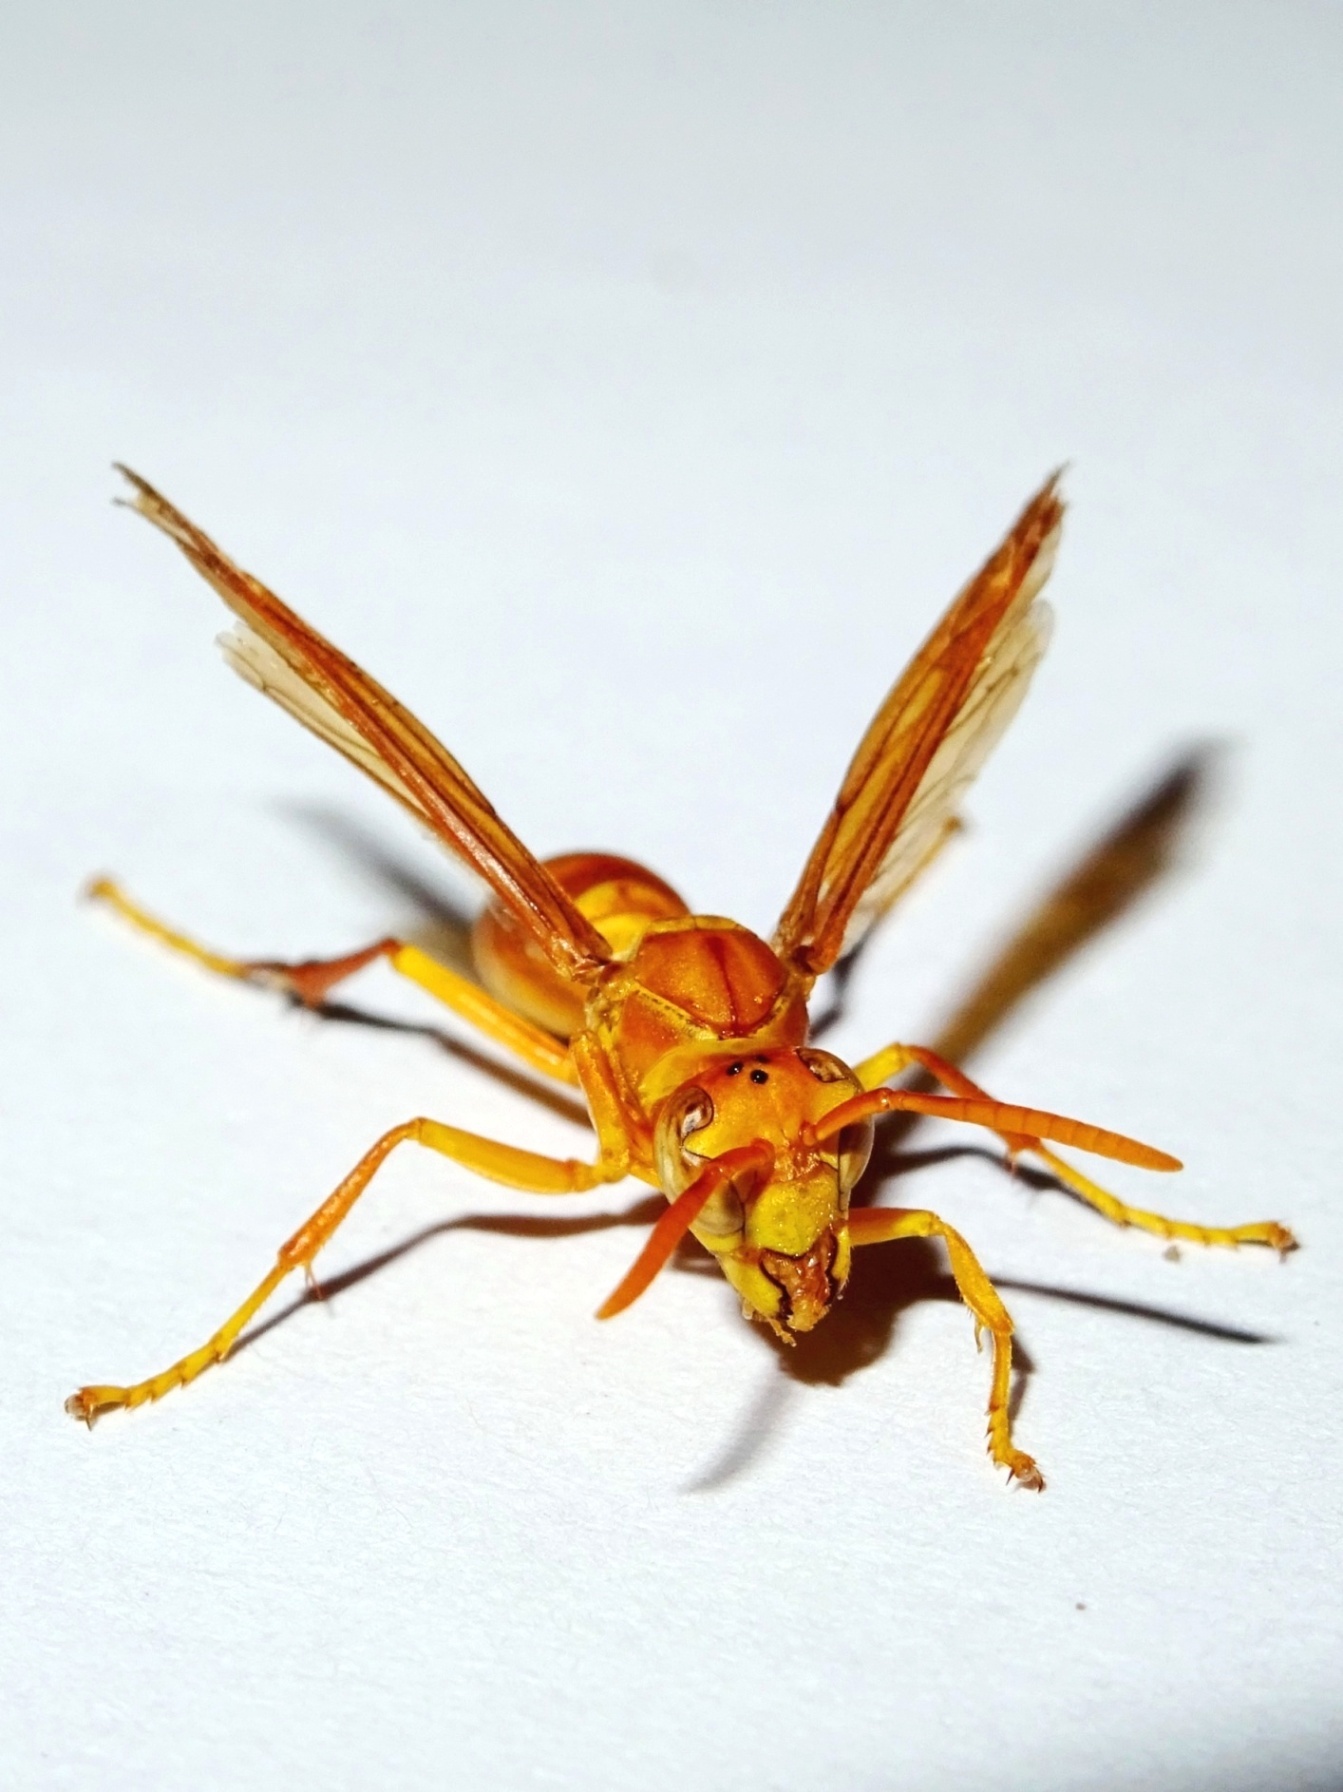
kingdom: Animalia
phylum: Arthropoda
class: Insecta
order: Hymenoptera
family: Eumenidae
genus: Polistes
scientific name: Polistes wattii
